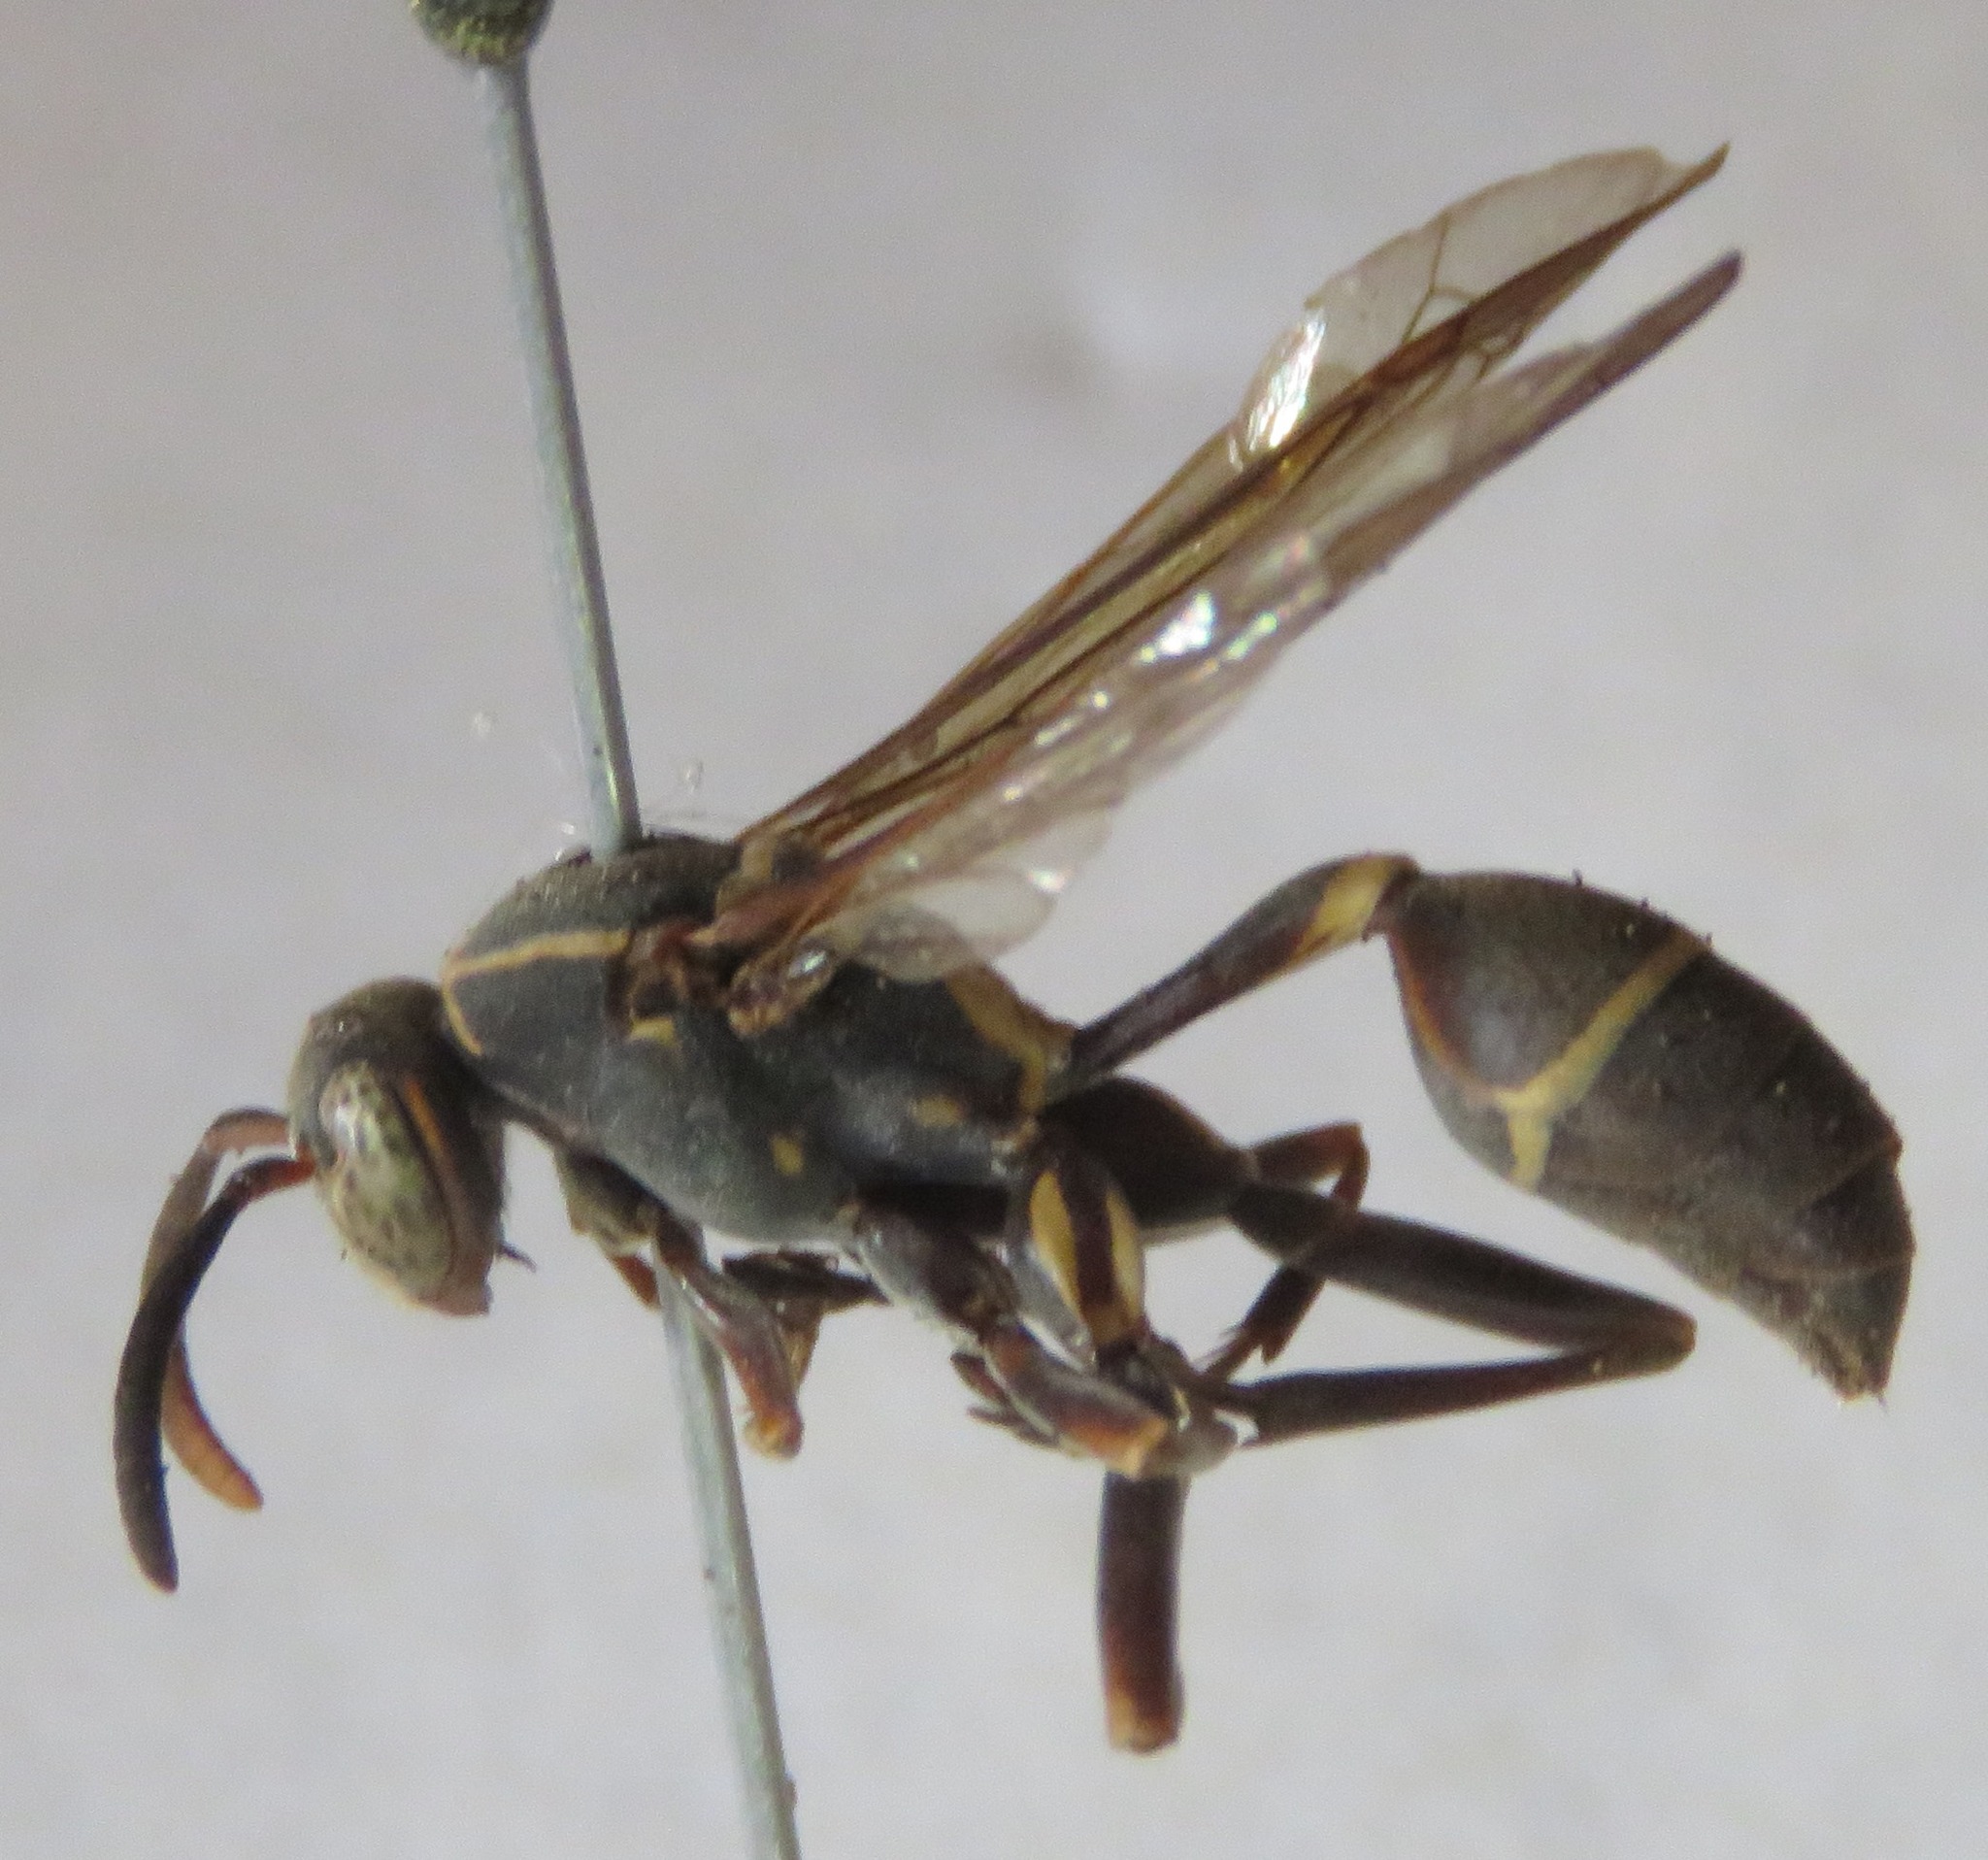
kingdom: Animalia
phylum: Arthropoda
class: Insecta
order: Hymenoptera
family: Vespidae
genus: Mischocyttarus
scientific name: Mischocyttarus rufidens
